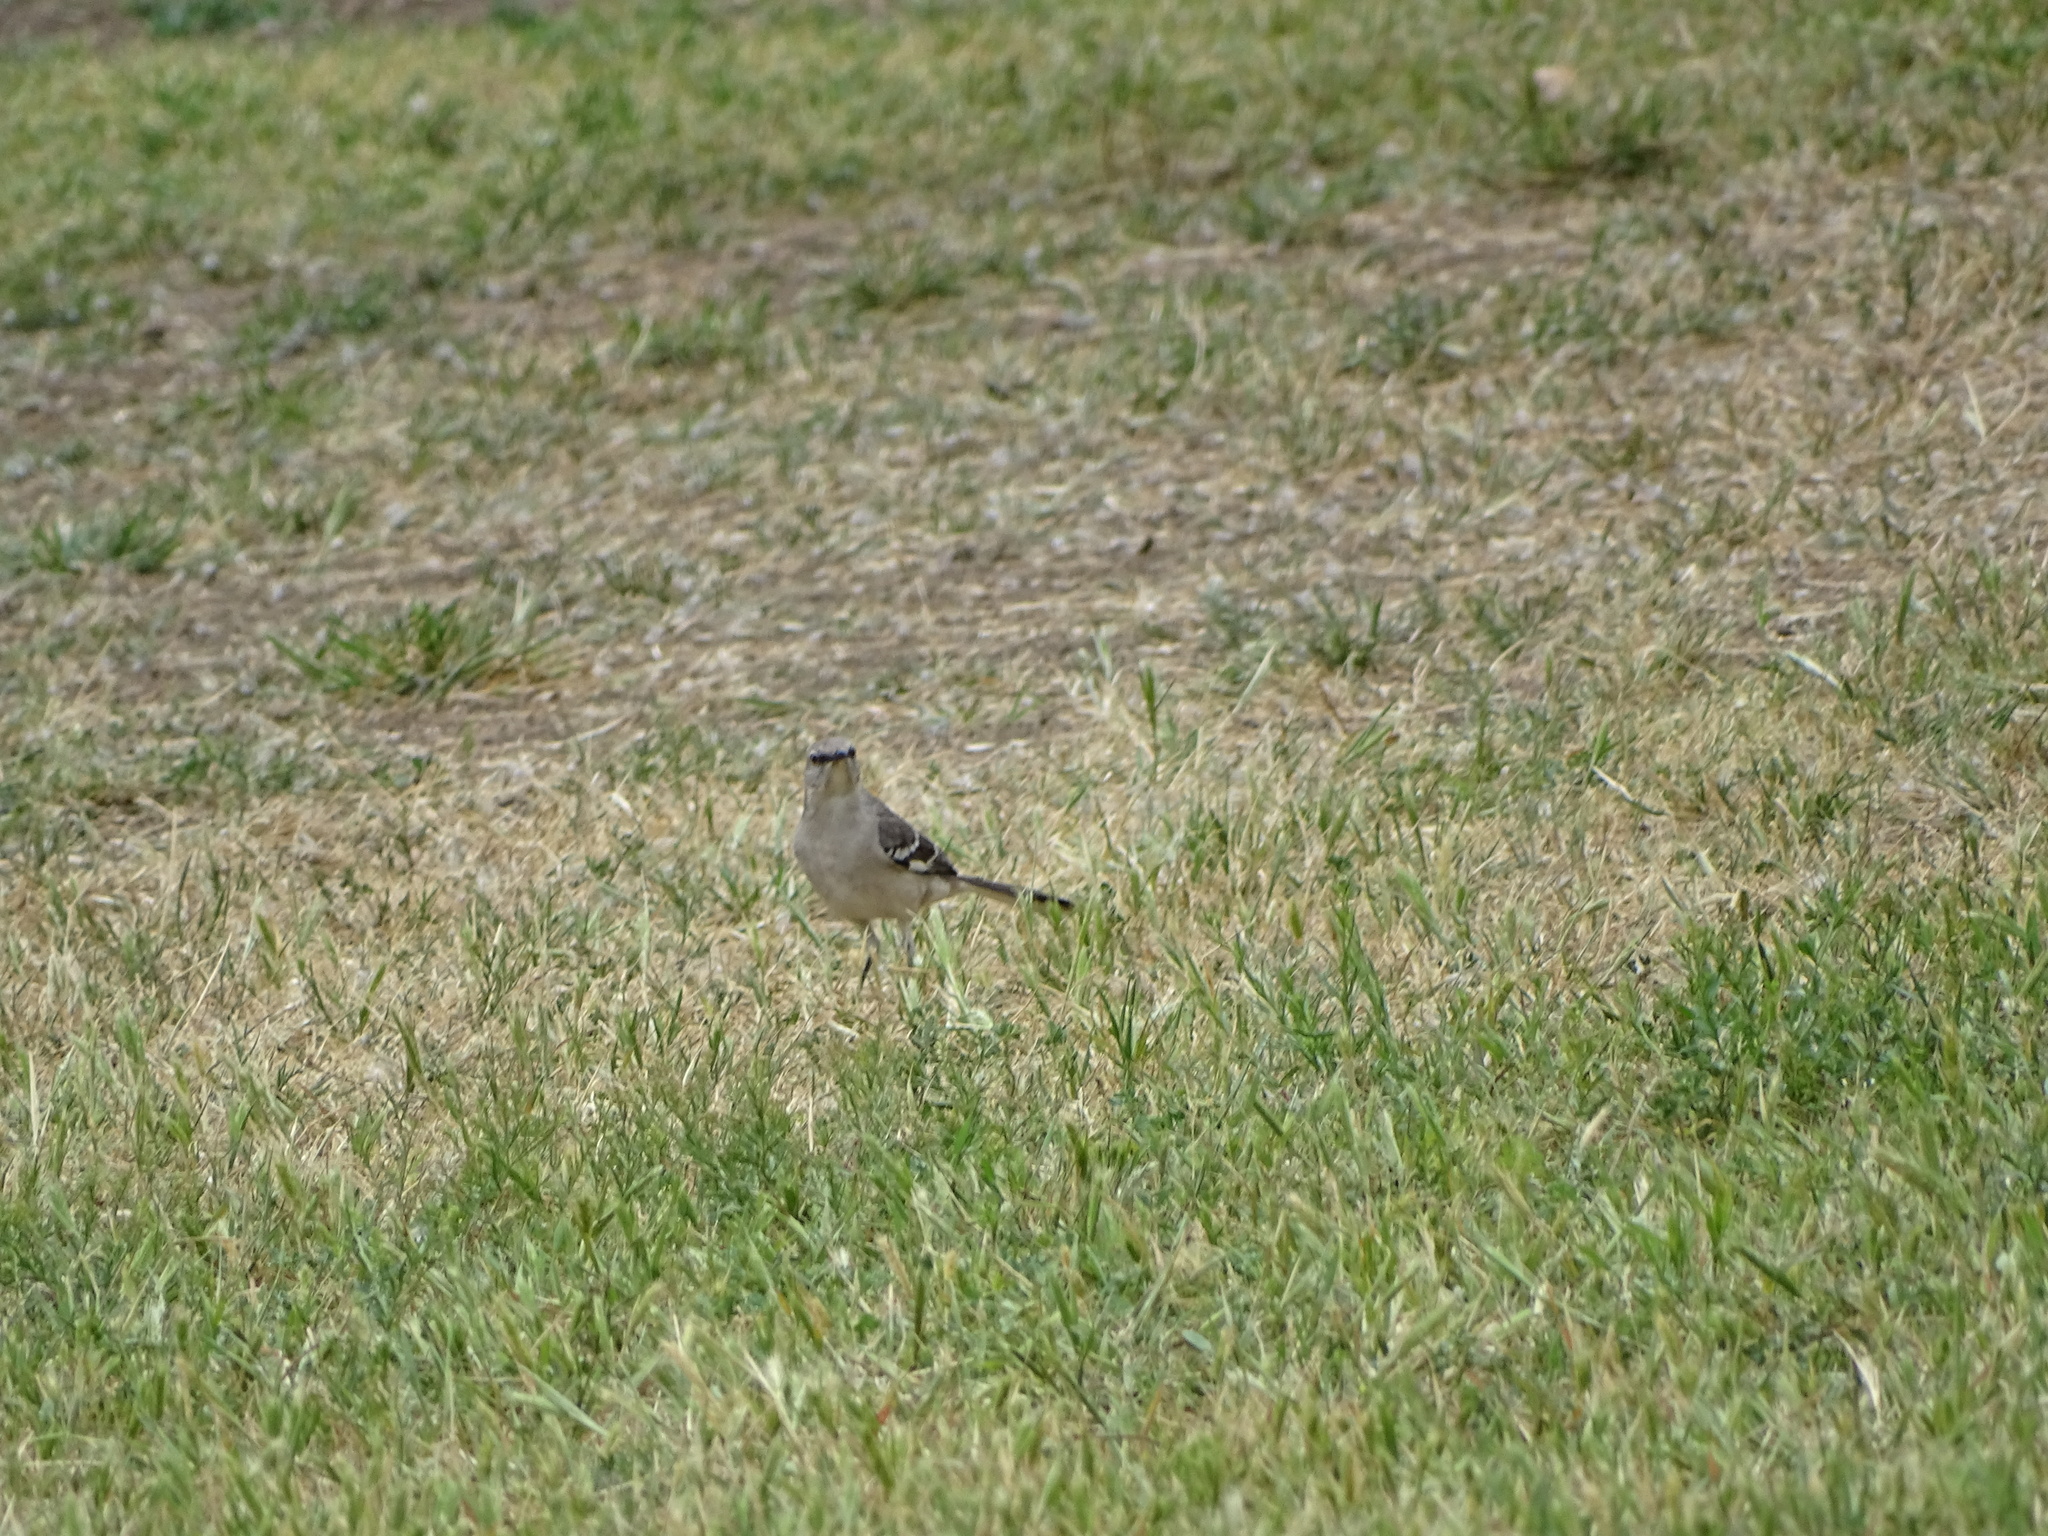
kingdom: Animalia
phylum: Chordata
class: Aves
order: Passeriformes
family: Mimidae
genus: Mimus
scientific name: Mimus polyglottos
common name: Northern mockingbird
